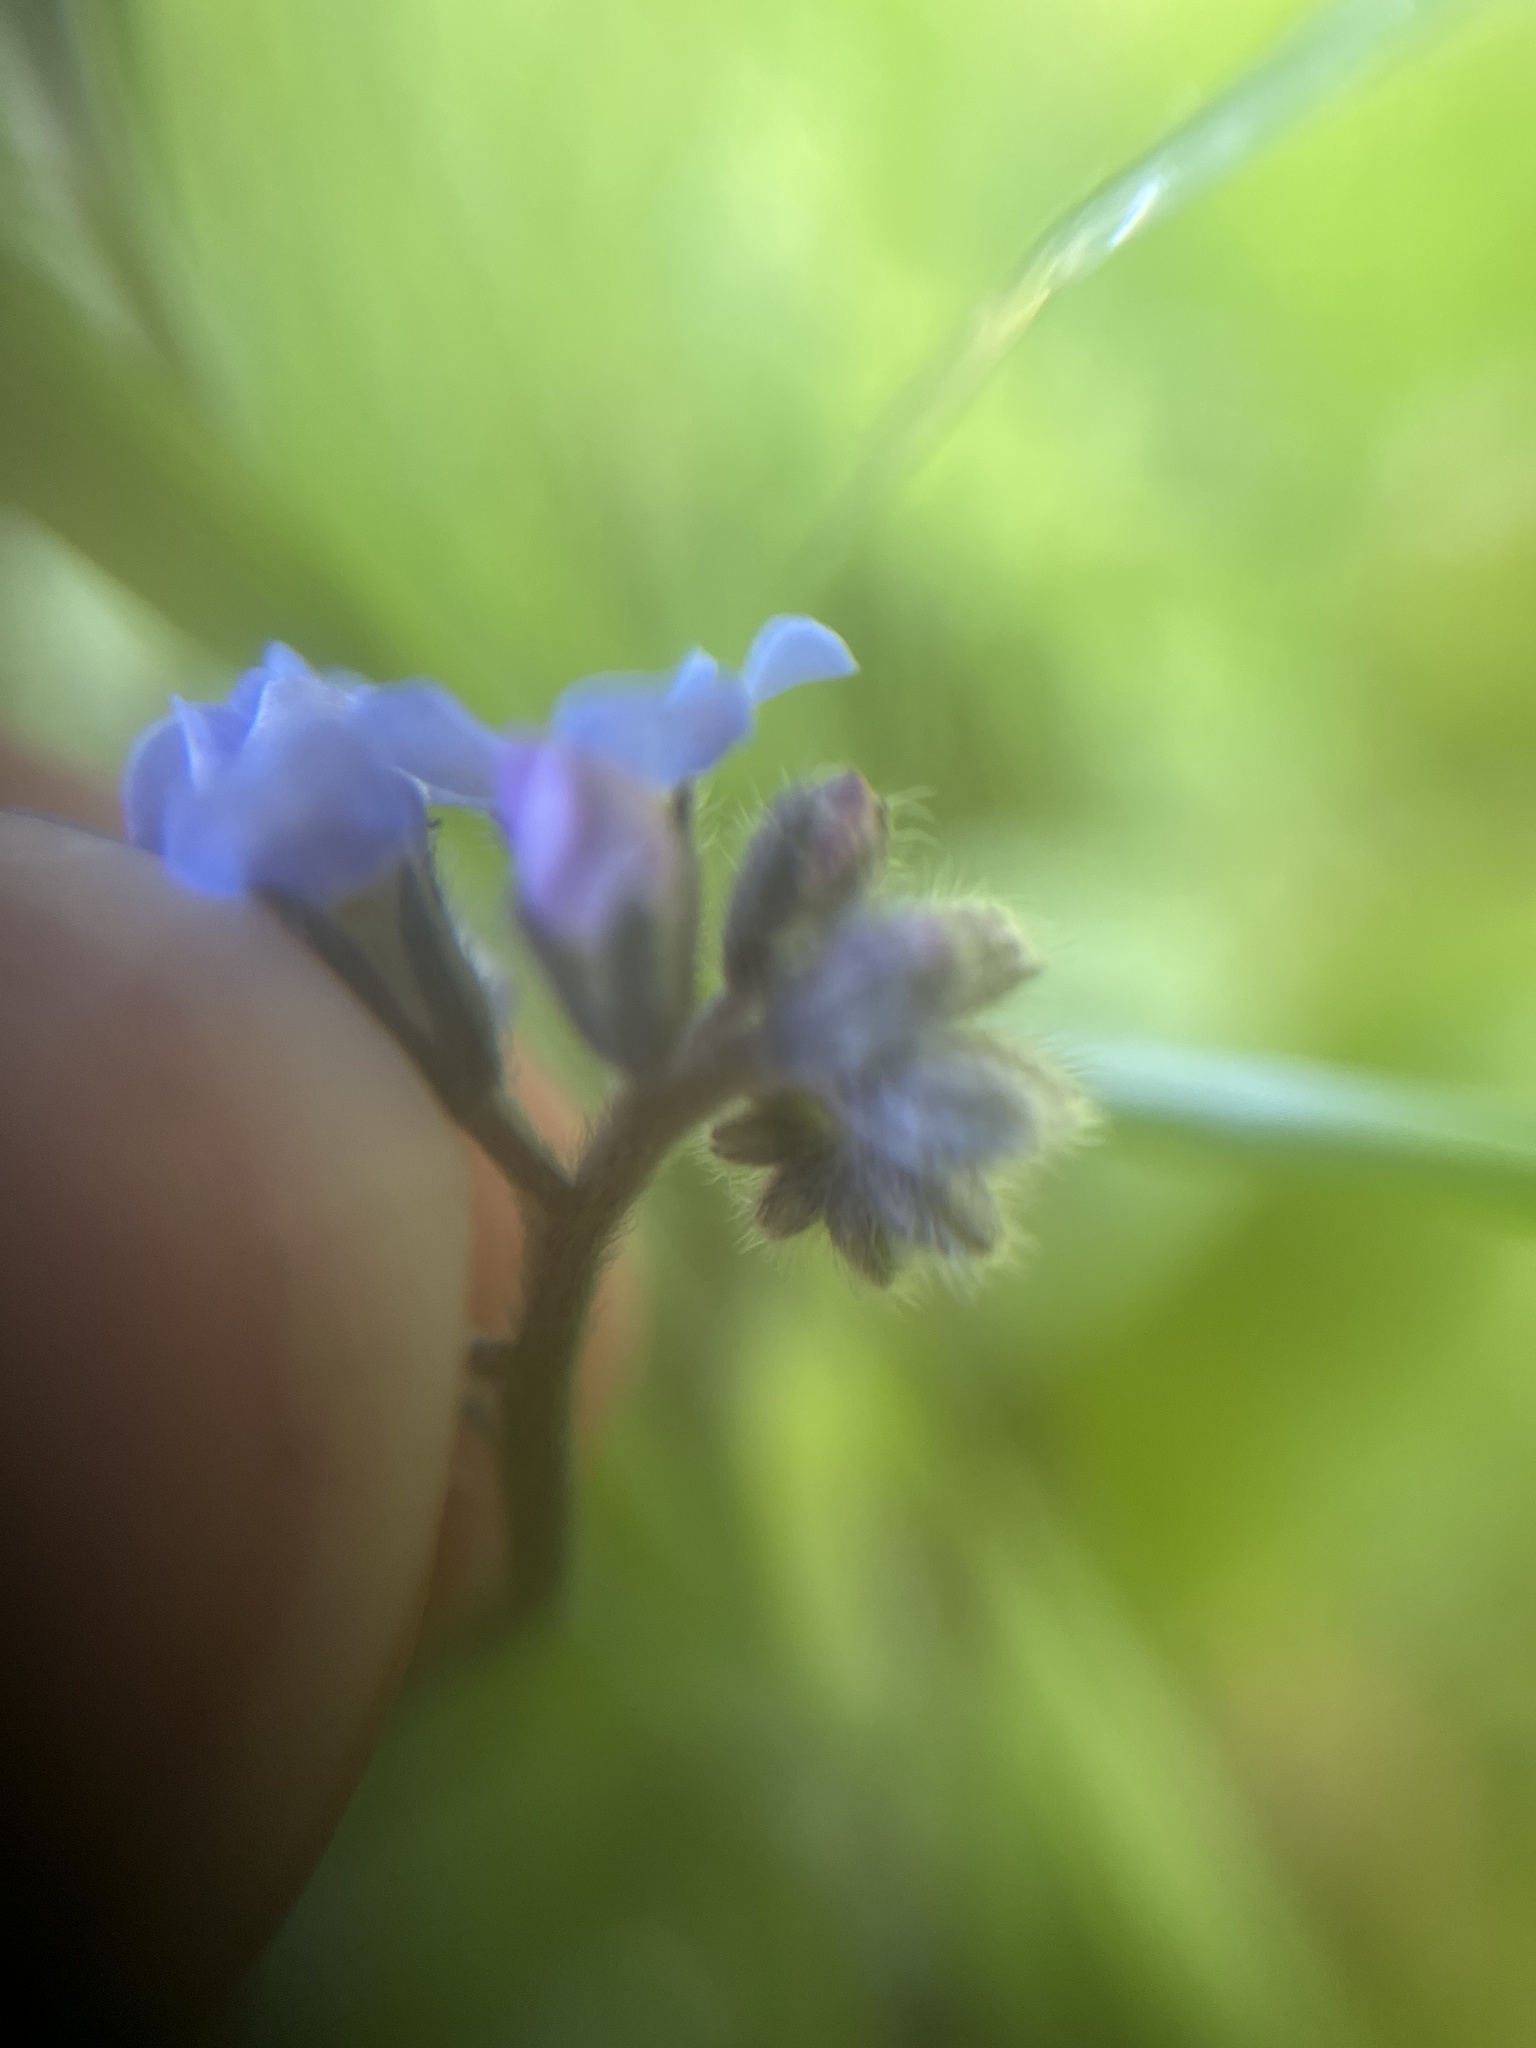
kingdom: Plantae
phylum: Tracheophyta
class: Magnoliopsida
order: Boraginales
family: Boraginaceae
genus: Myosotis
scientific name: Myosotis sylvatica
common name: Wood forget-me-not
